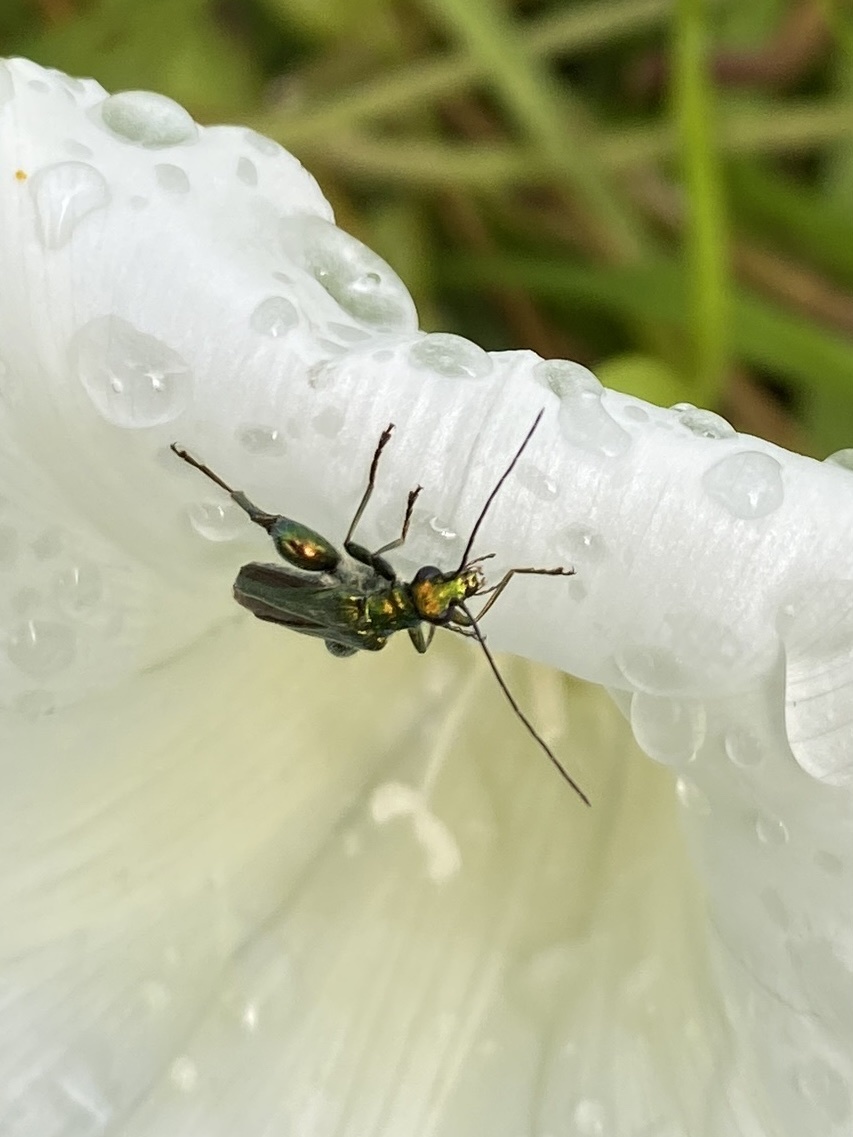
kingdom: Animalia
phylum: Arthropoda
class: Insecta
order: Coleoptera
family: Oedemeridae
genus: Oedemera
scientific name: Oedemera nobilis
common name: Swollen-thighed beetle
